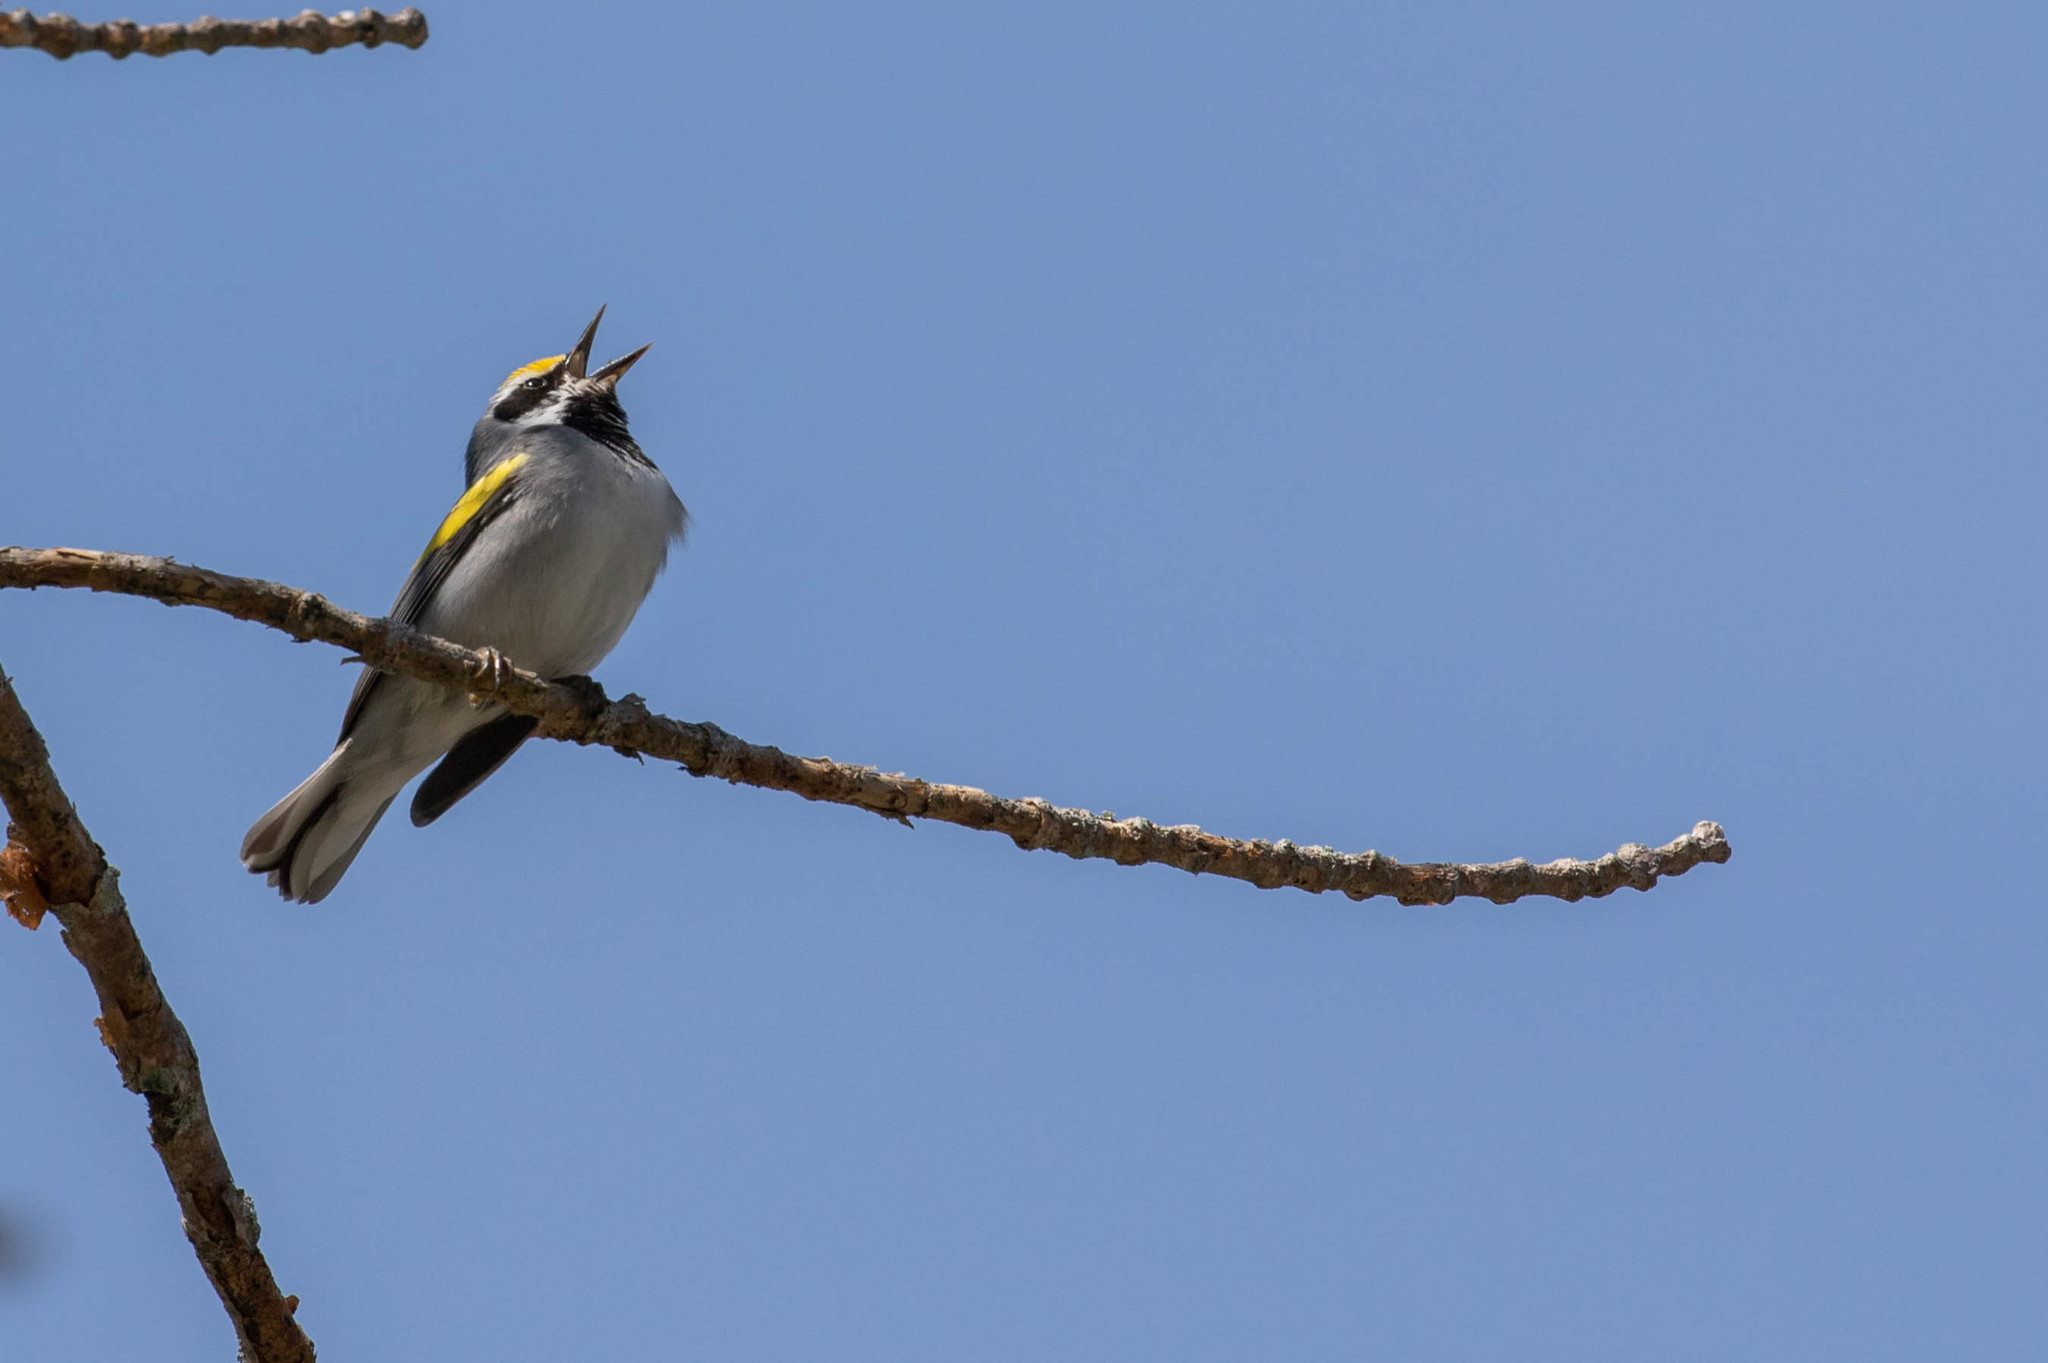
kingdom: Animalia
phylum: Chordata
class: Aves
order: Passeriformes
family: Parulidae
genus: Vermivora
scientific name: Vermivora chrysoptera
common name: Golden-winged warbler
